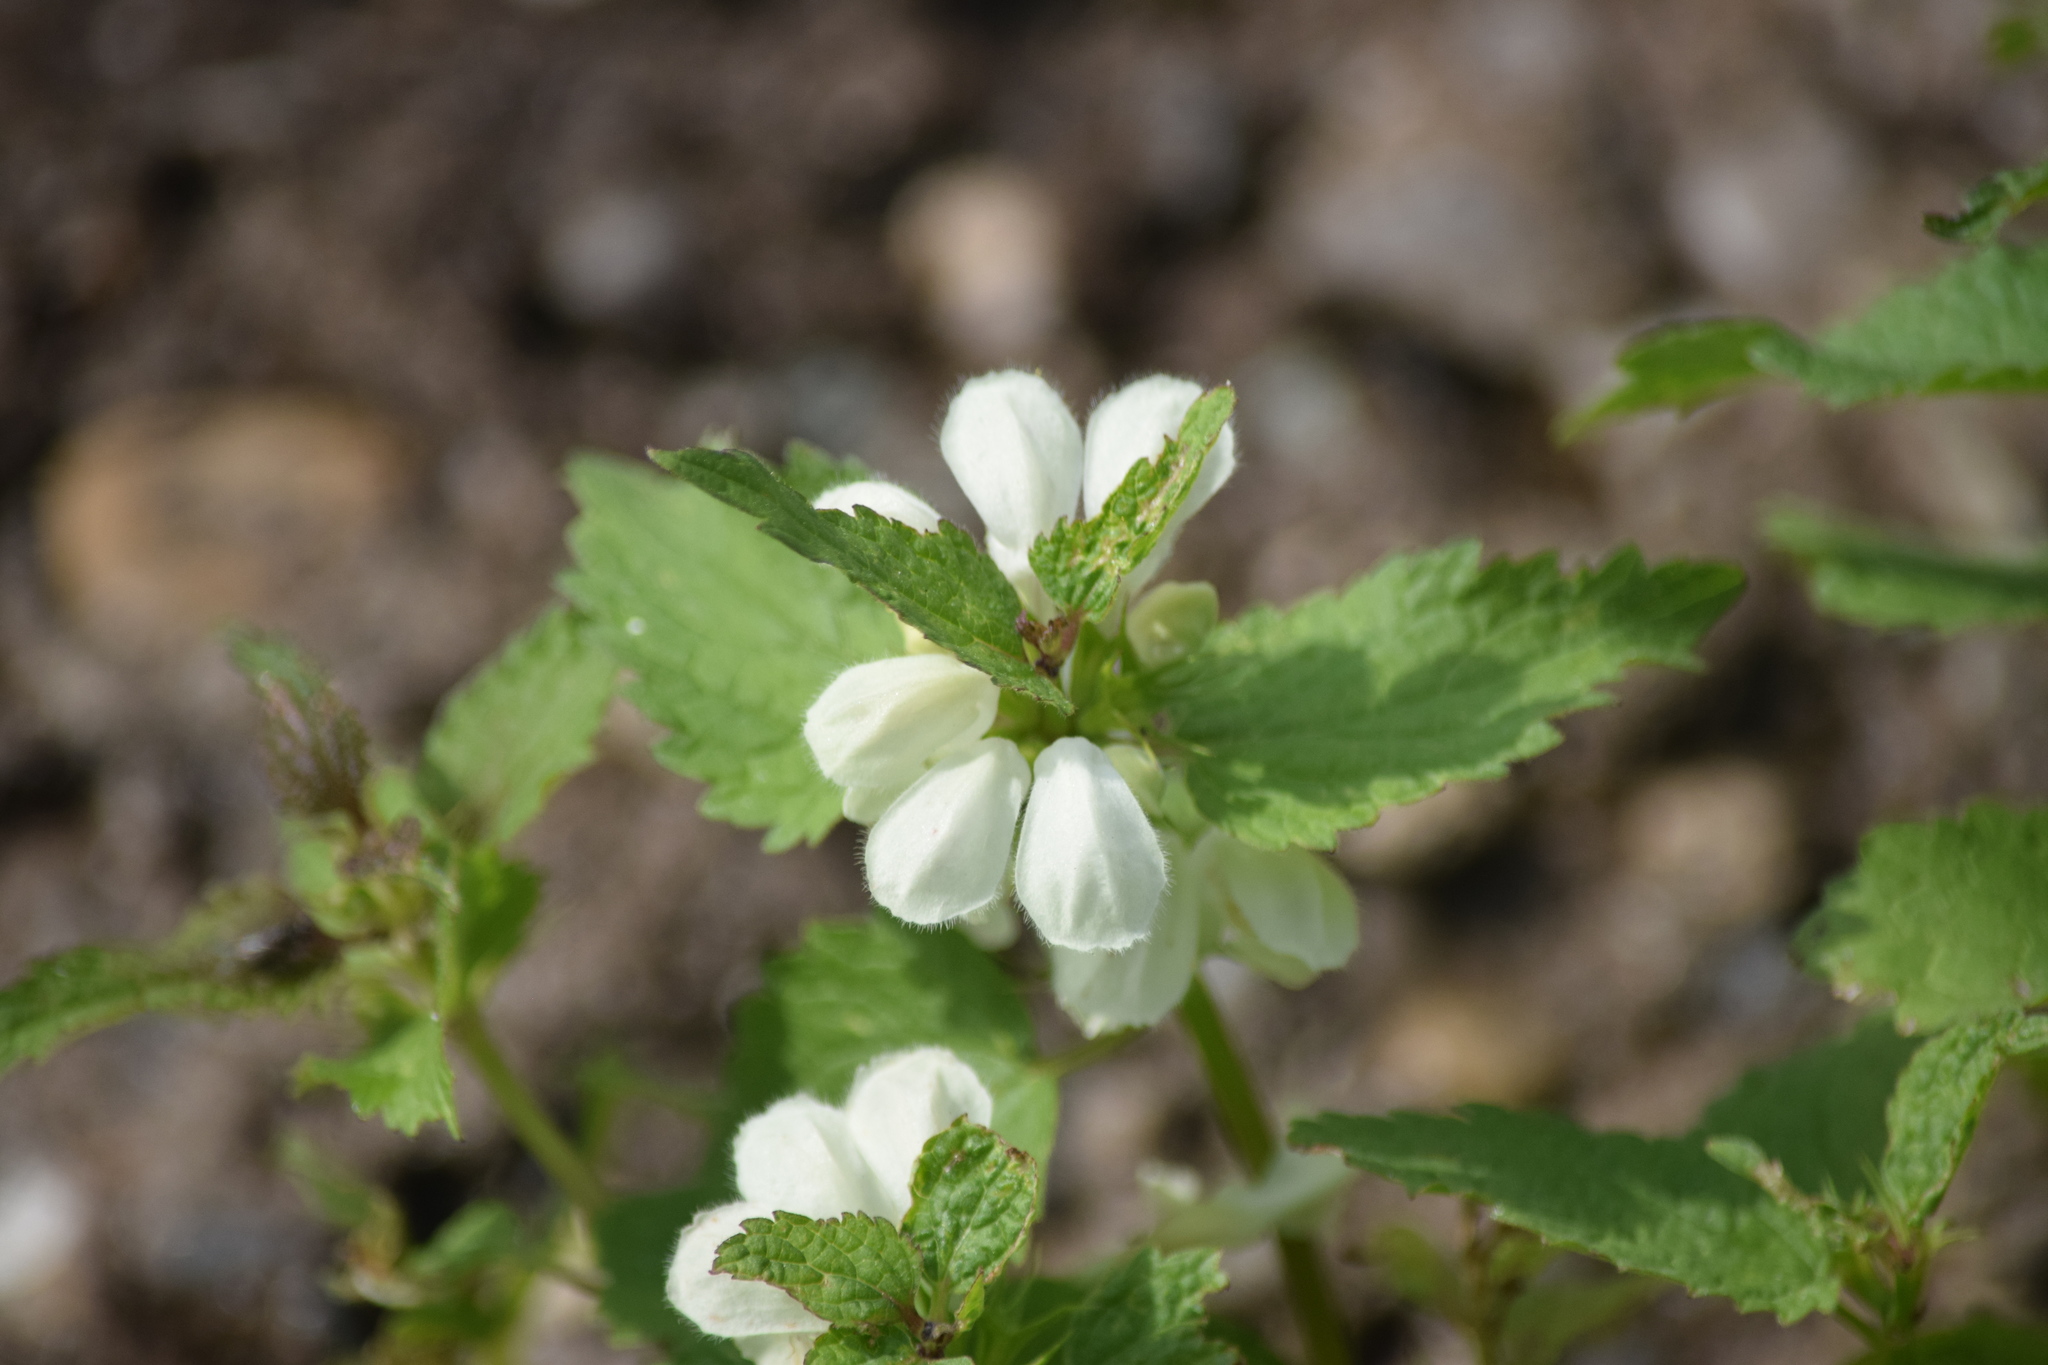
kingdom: Plantae
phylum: Tracheophyta
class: Magnoliopsida
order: Lamiales
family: Lamiaceae
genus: Lamium
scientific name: Lamium album
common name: White dead-nettle
